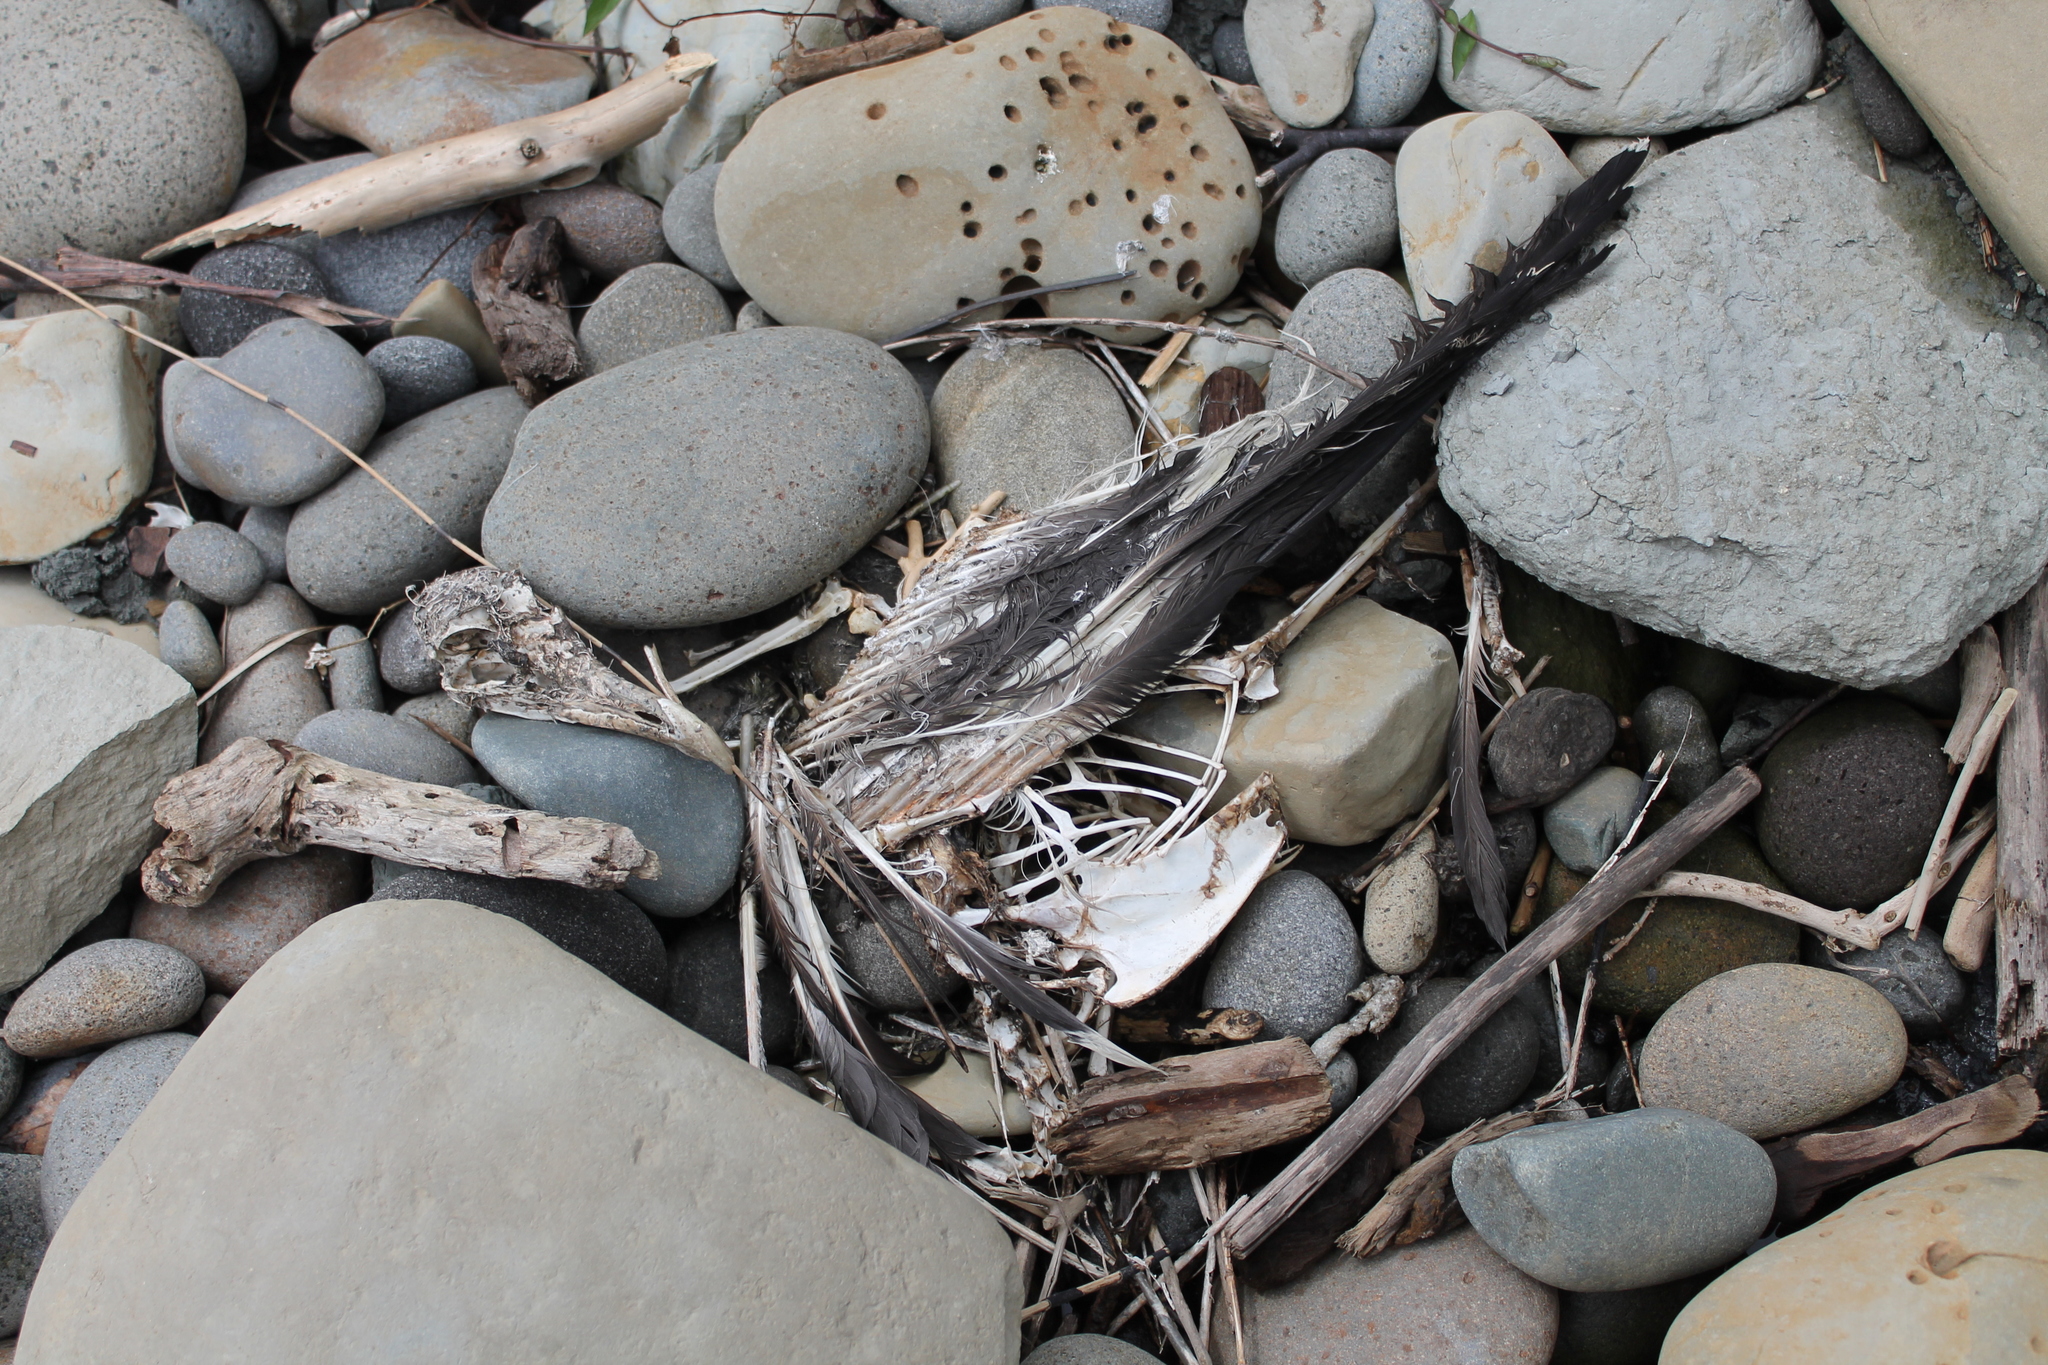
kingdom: Animalia
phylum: Chordata
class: Aves
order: Charadriiformes
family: Laridae
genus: Larus
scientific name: Larus dominicanus
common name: Kelp gull
